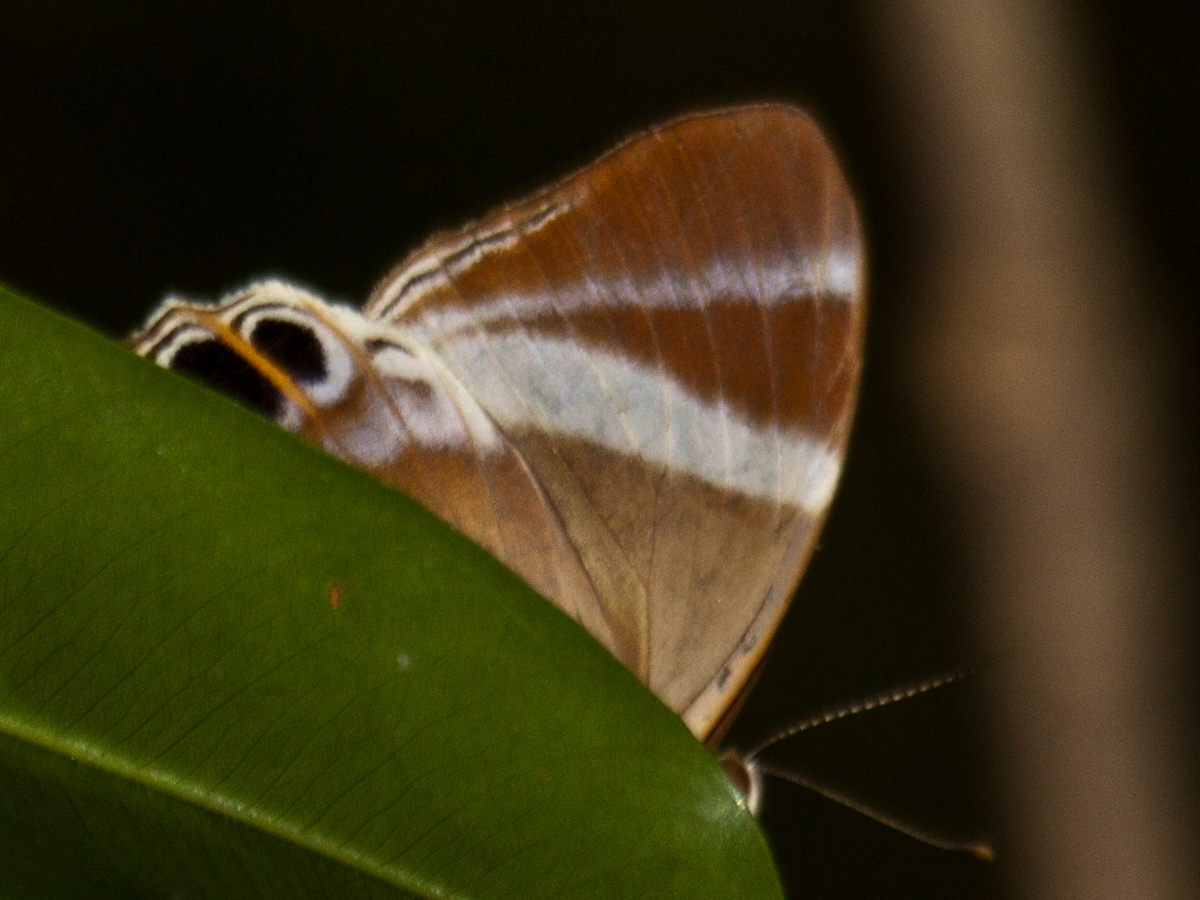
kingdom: Animalia
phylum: Arthropoda
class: Insecta
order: Lepidoptera
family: Lycaenidae
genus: Abisara
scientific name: Abisara neophron
